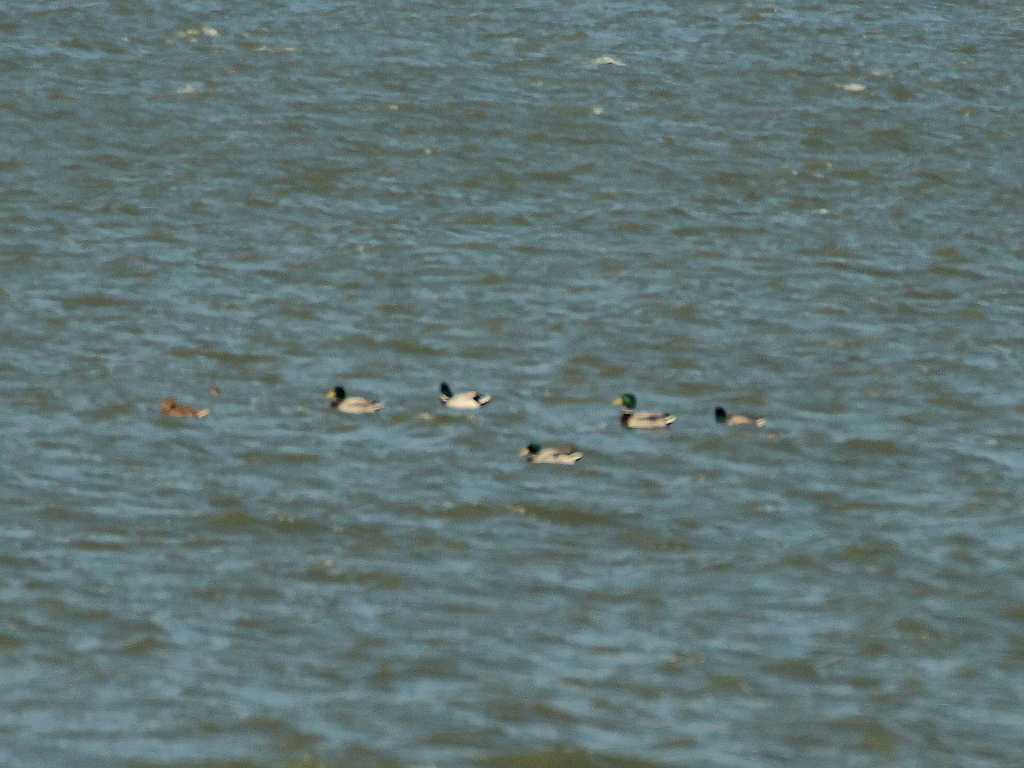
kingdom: Animalia
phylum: Chordata
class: Aves
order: Anseriformes
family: Anatidae
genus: Anas
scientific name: Anas platyrhynchos
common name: Mallard
